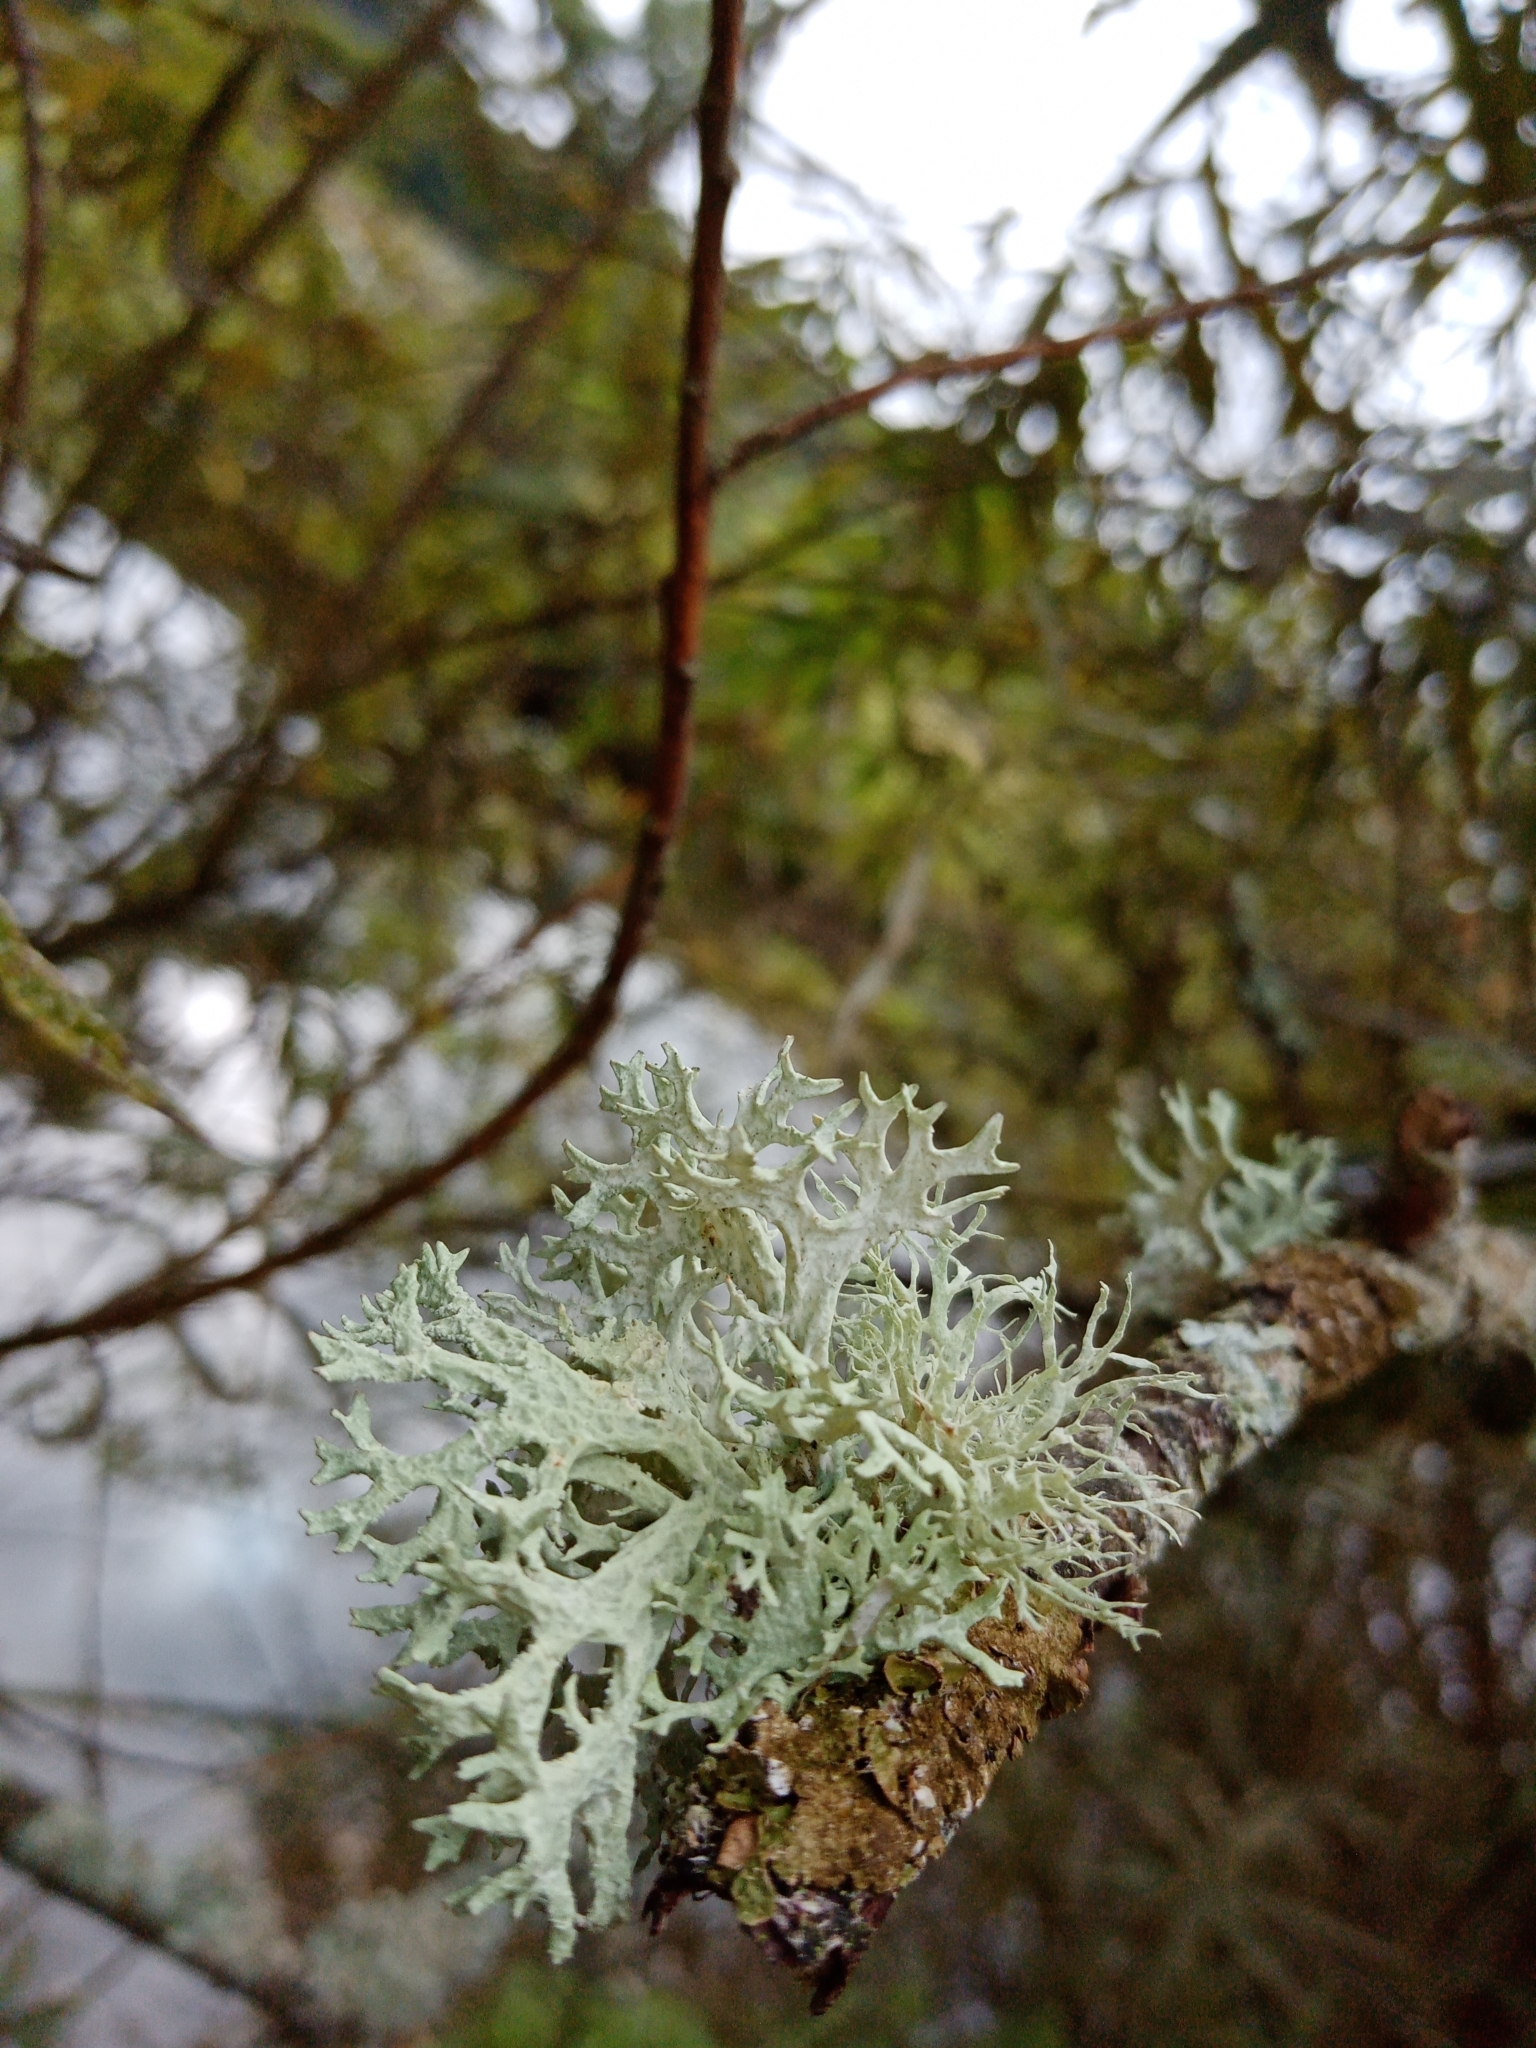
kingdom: Fungi
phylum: Ascomycota
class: Lecanoromycetes
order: Lecanorales
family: Parmeliaceae
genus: Evernia
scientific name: Evernia prunastri
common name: Oak moss
